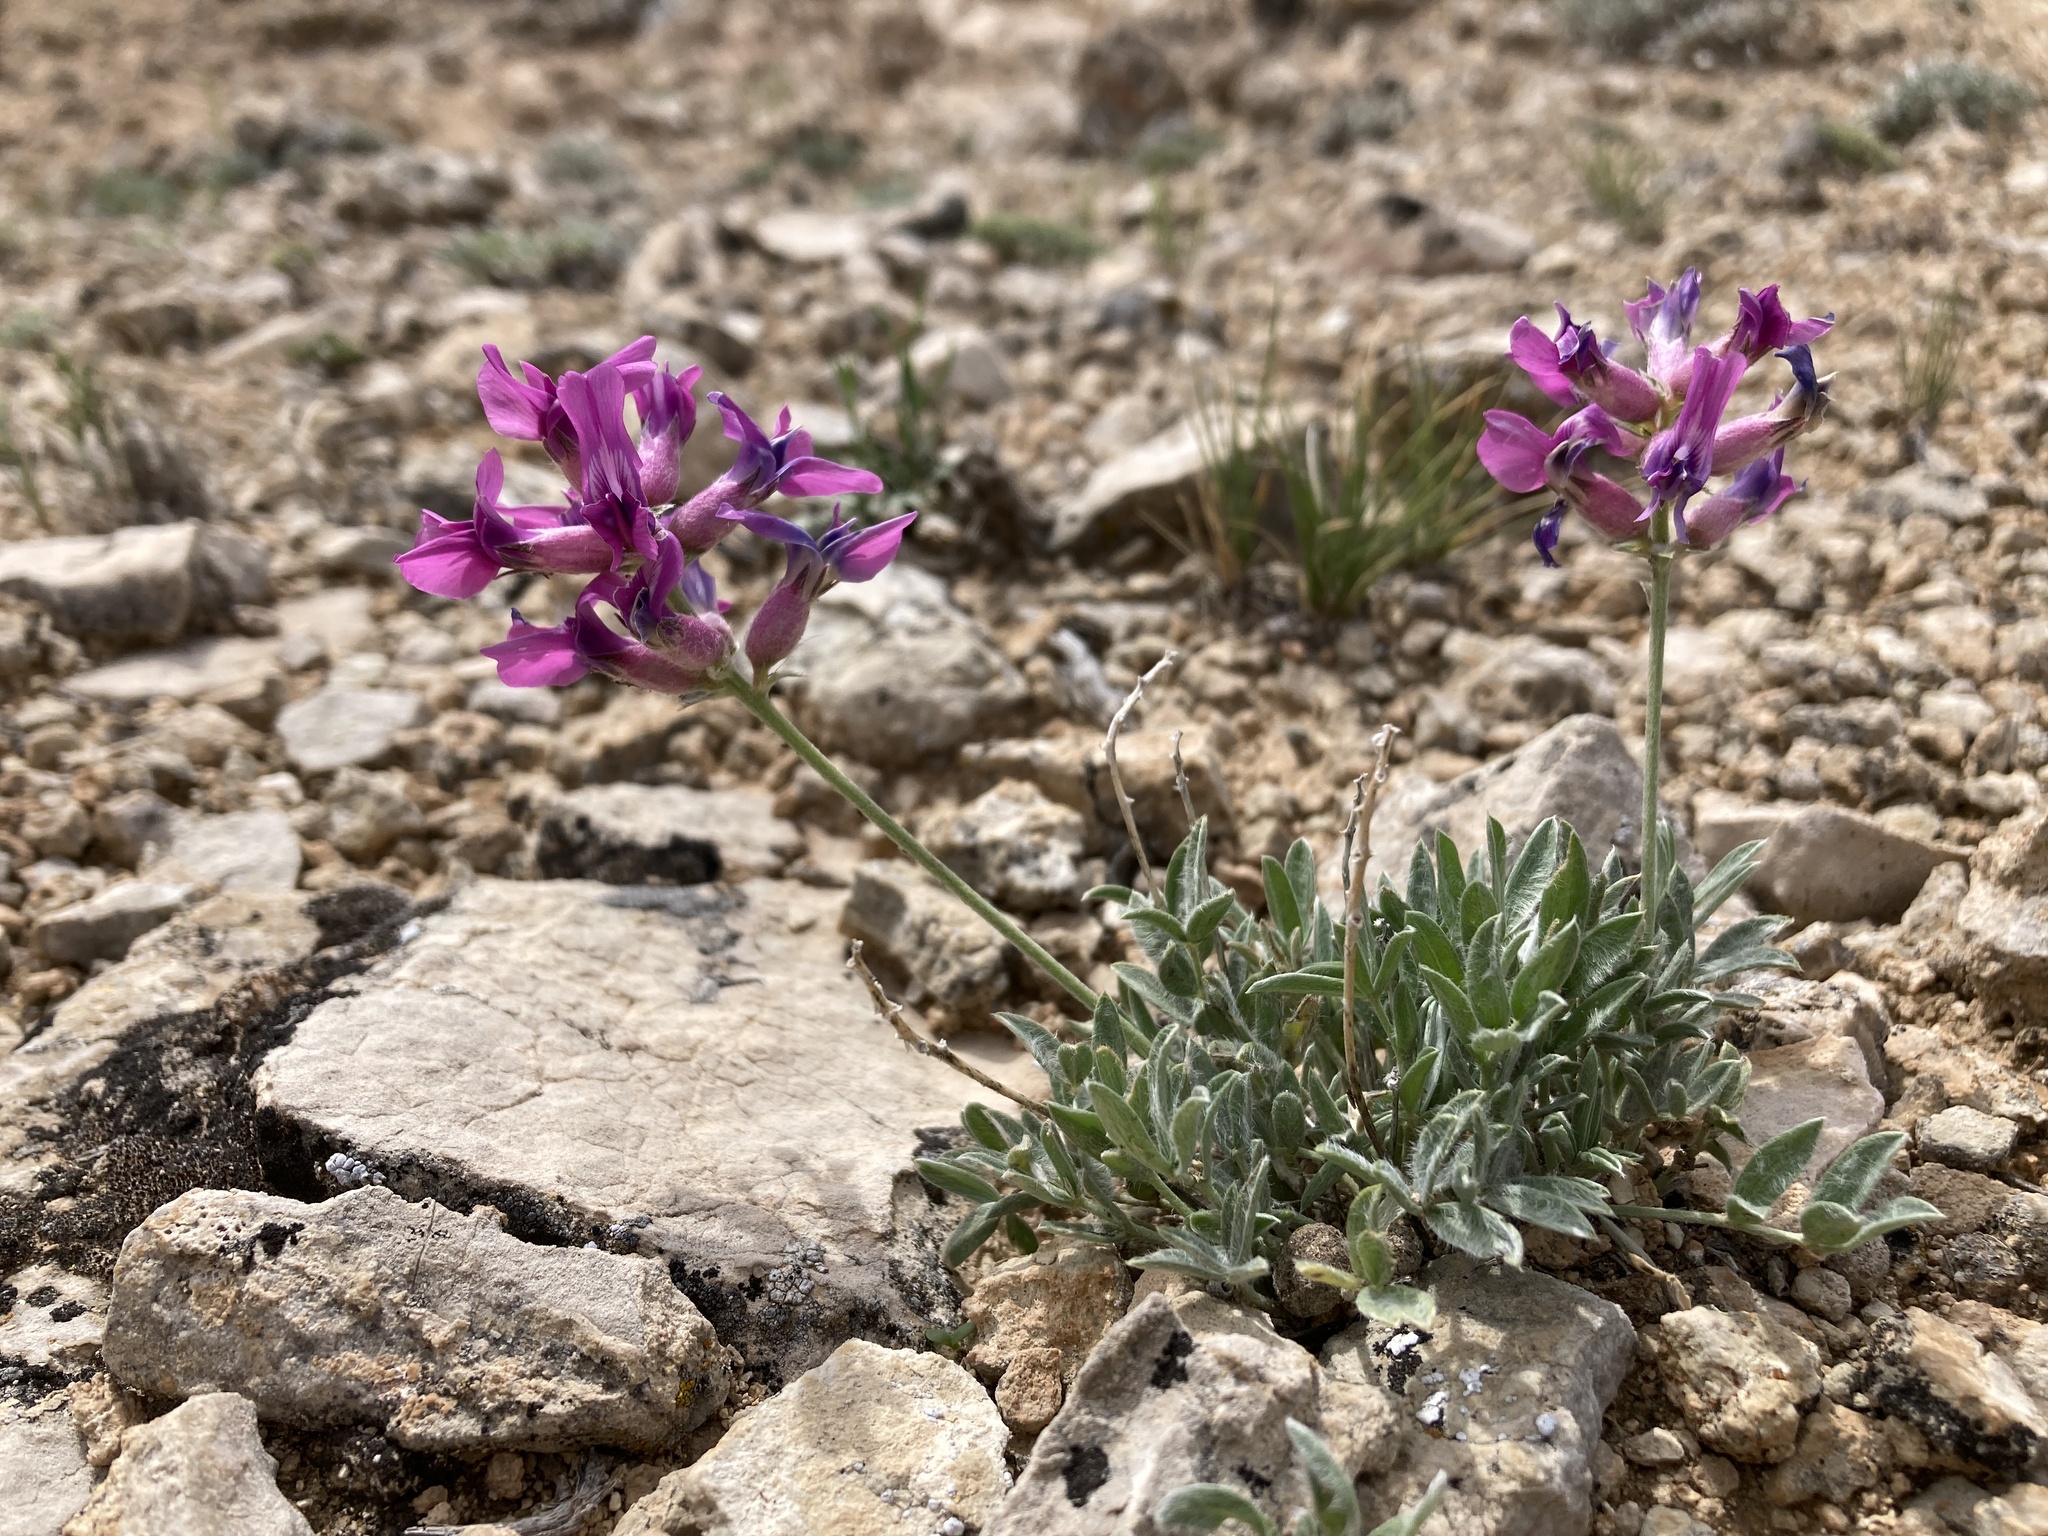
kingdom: Plantae
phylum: Tracheophyta
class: Magnoliopsida
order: Fabales
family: Fabaceae
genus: Oxytropis
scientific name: Oxytropis besseyi
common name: Bessey's locoweed
